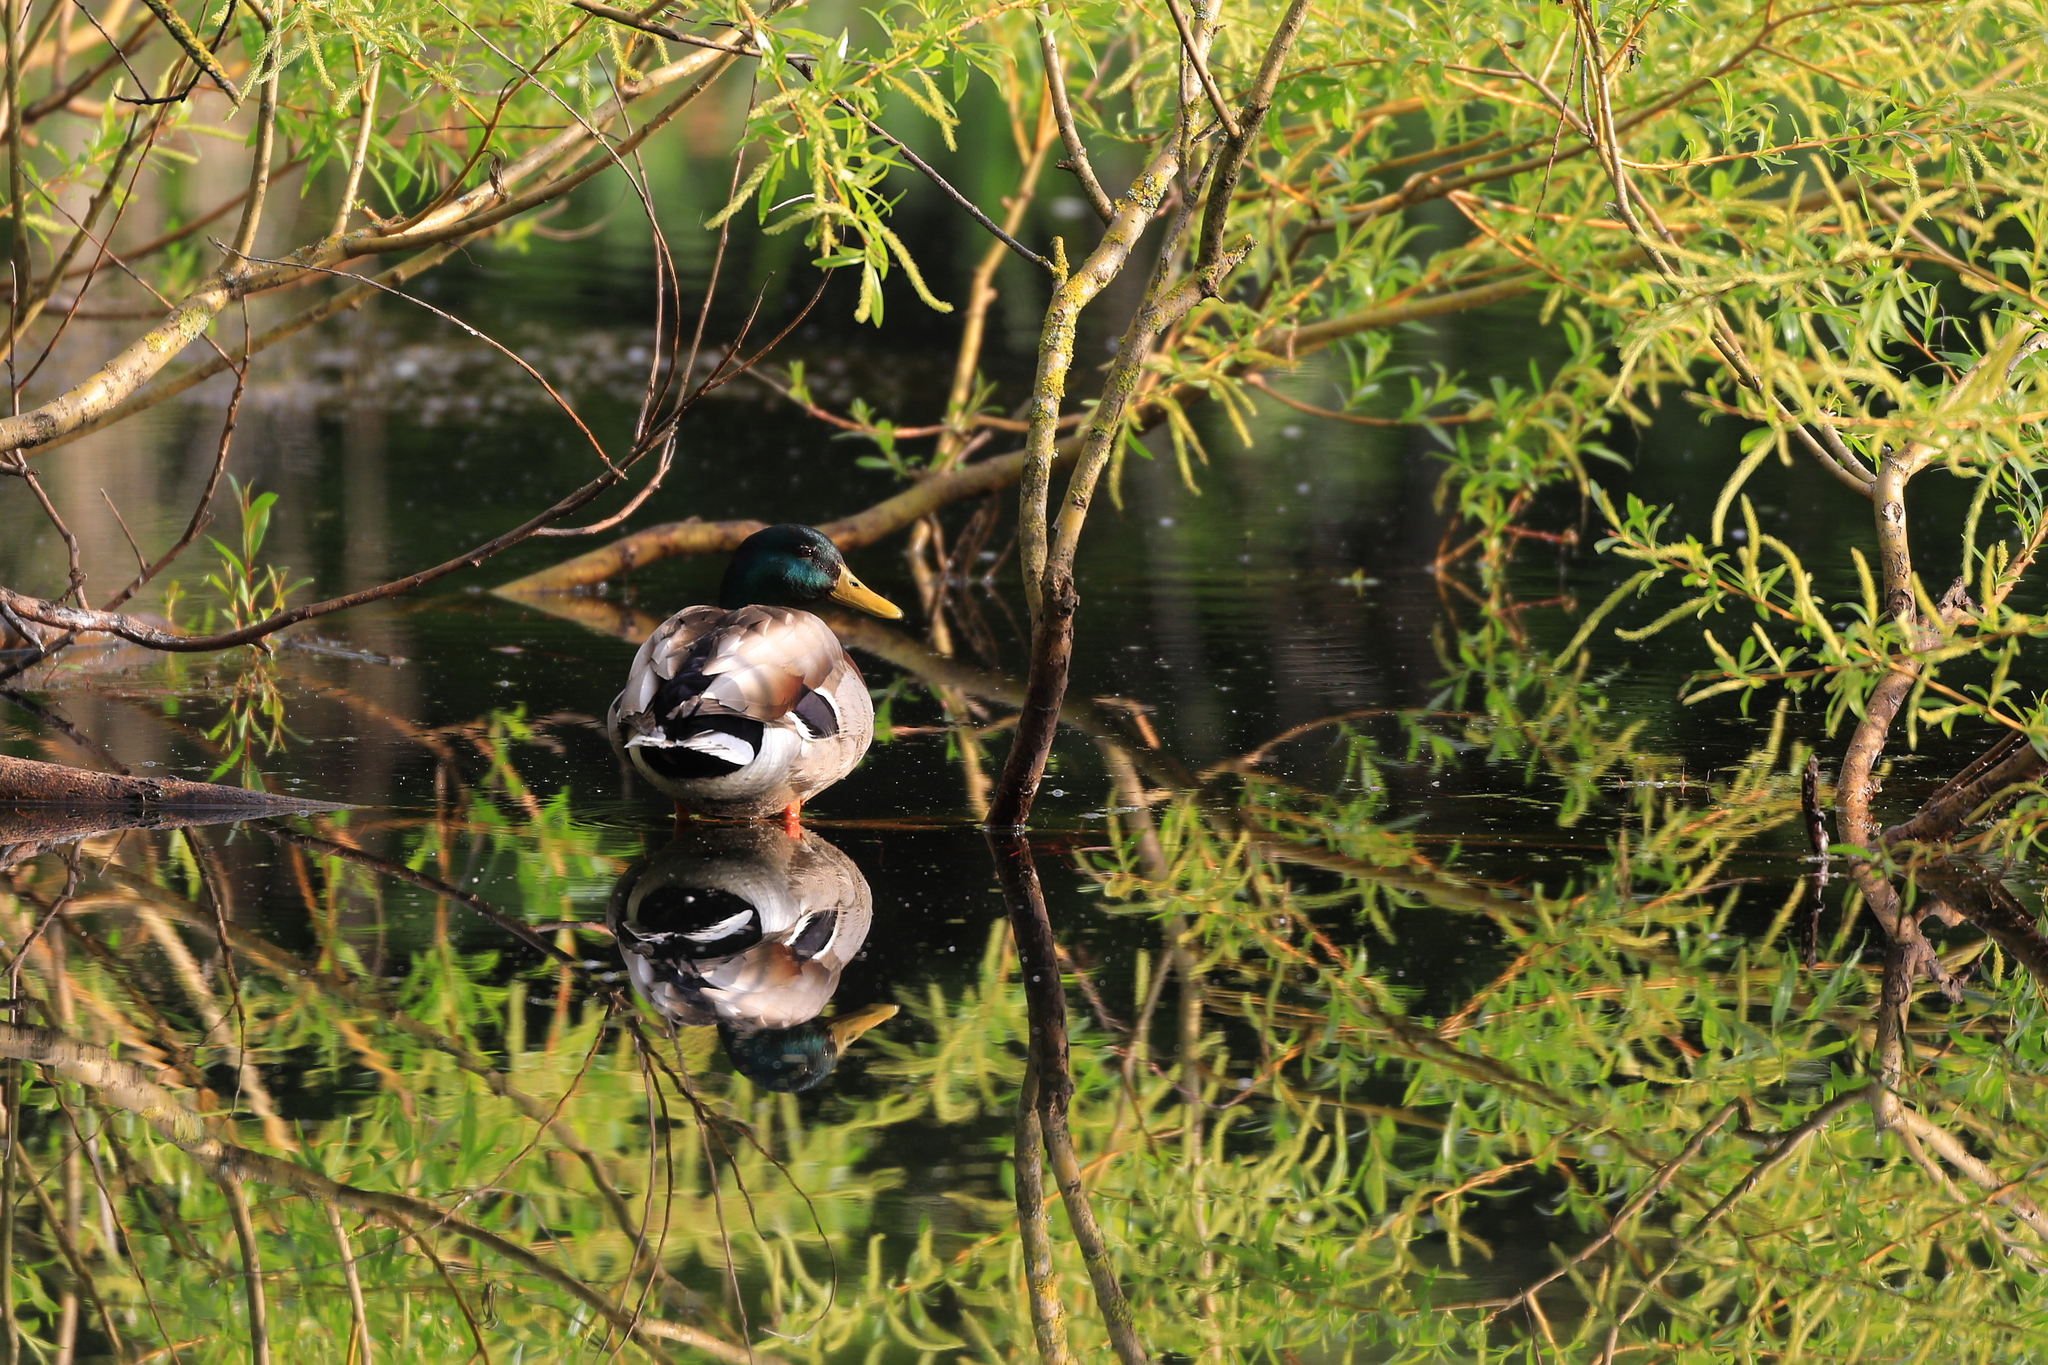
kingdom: Animalia
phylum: Chordata
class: Aves
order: Anseriformes
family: Anatidae
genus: Anas
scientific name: Anas platyrhynchos
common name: Mallard
